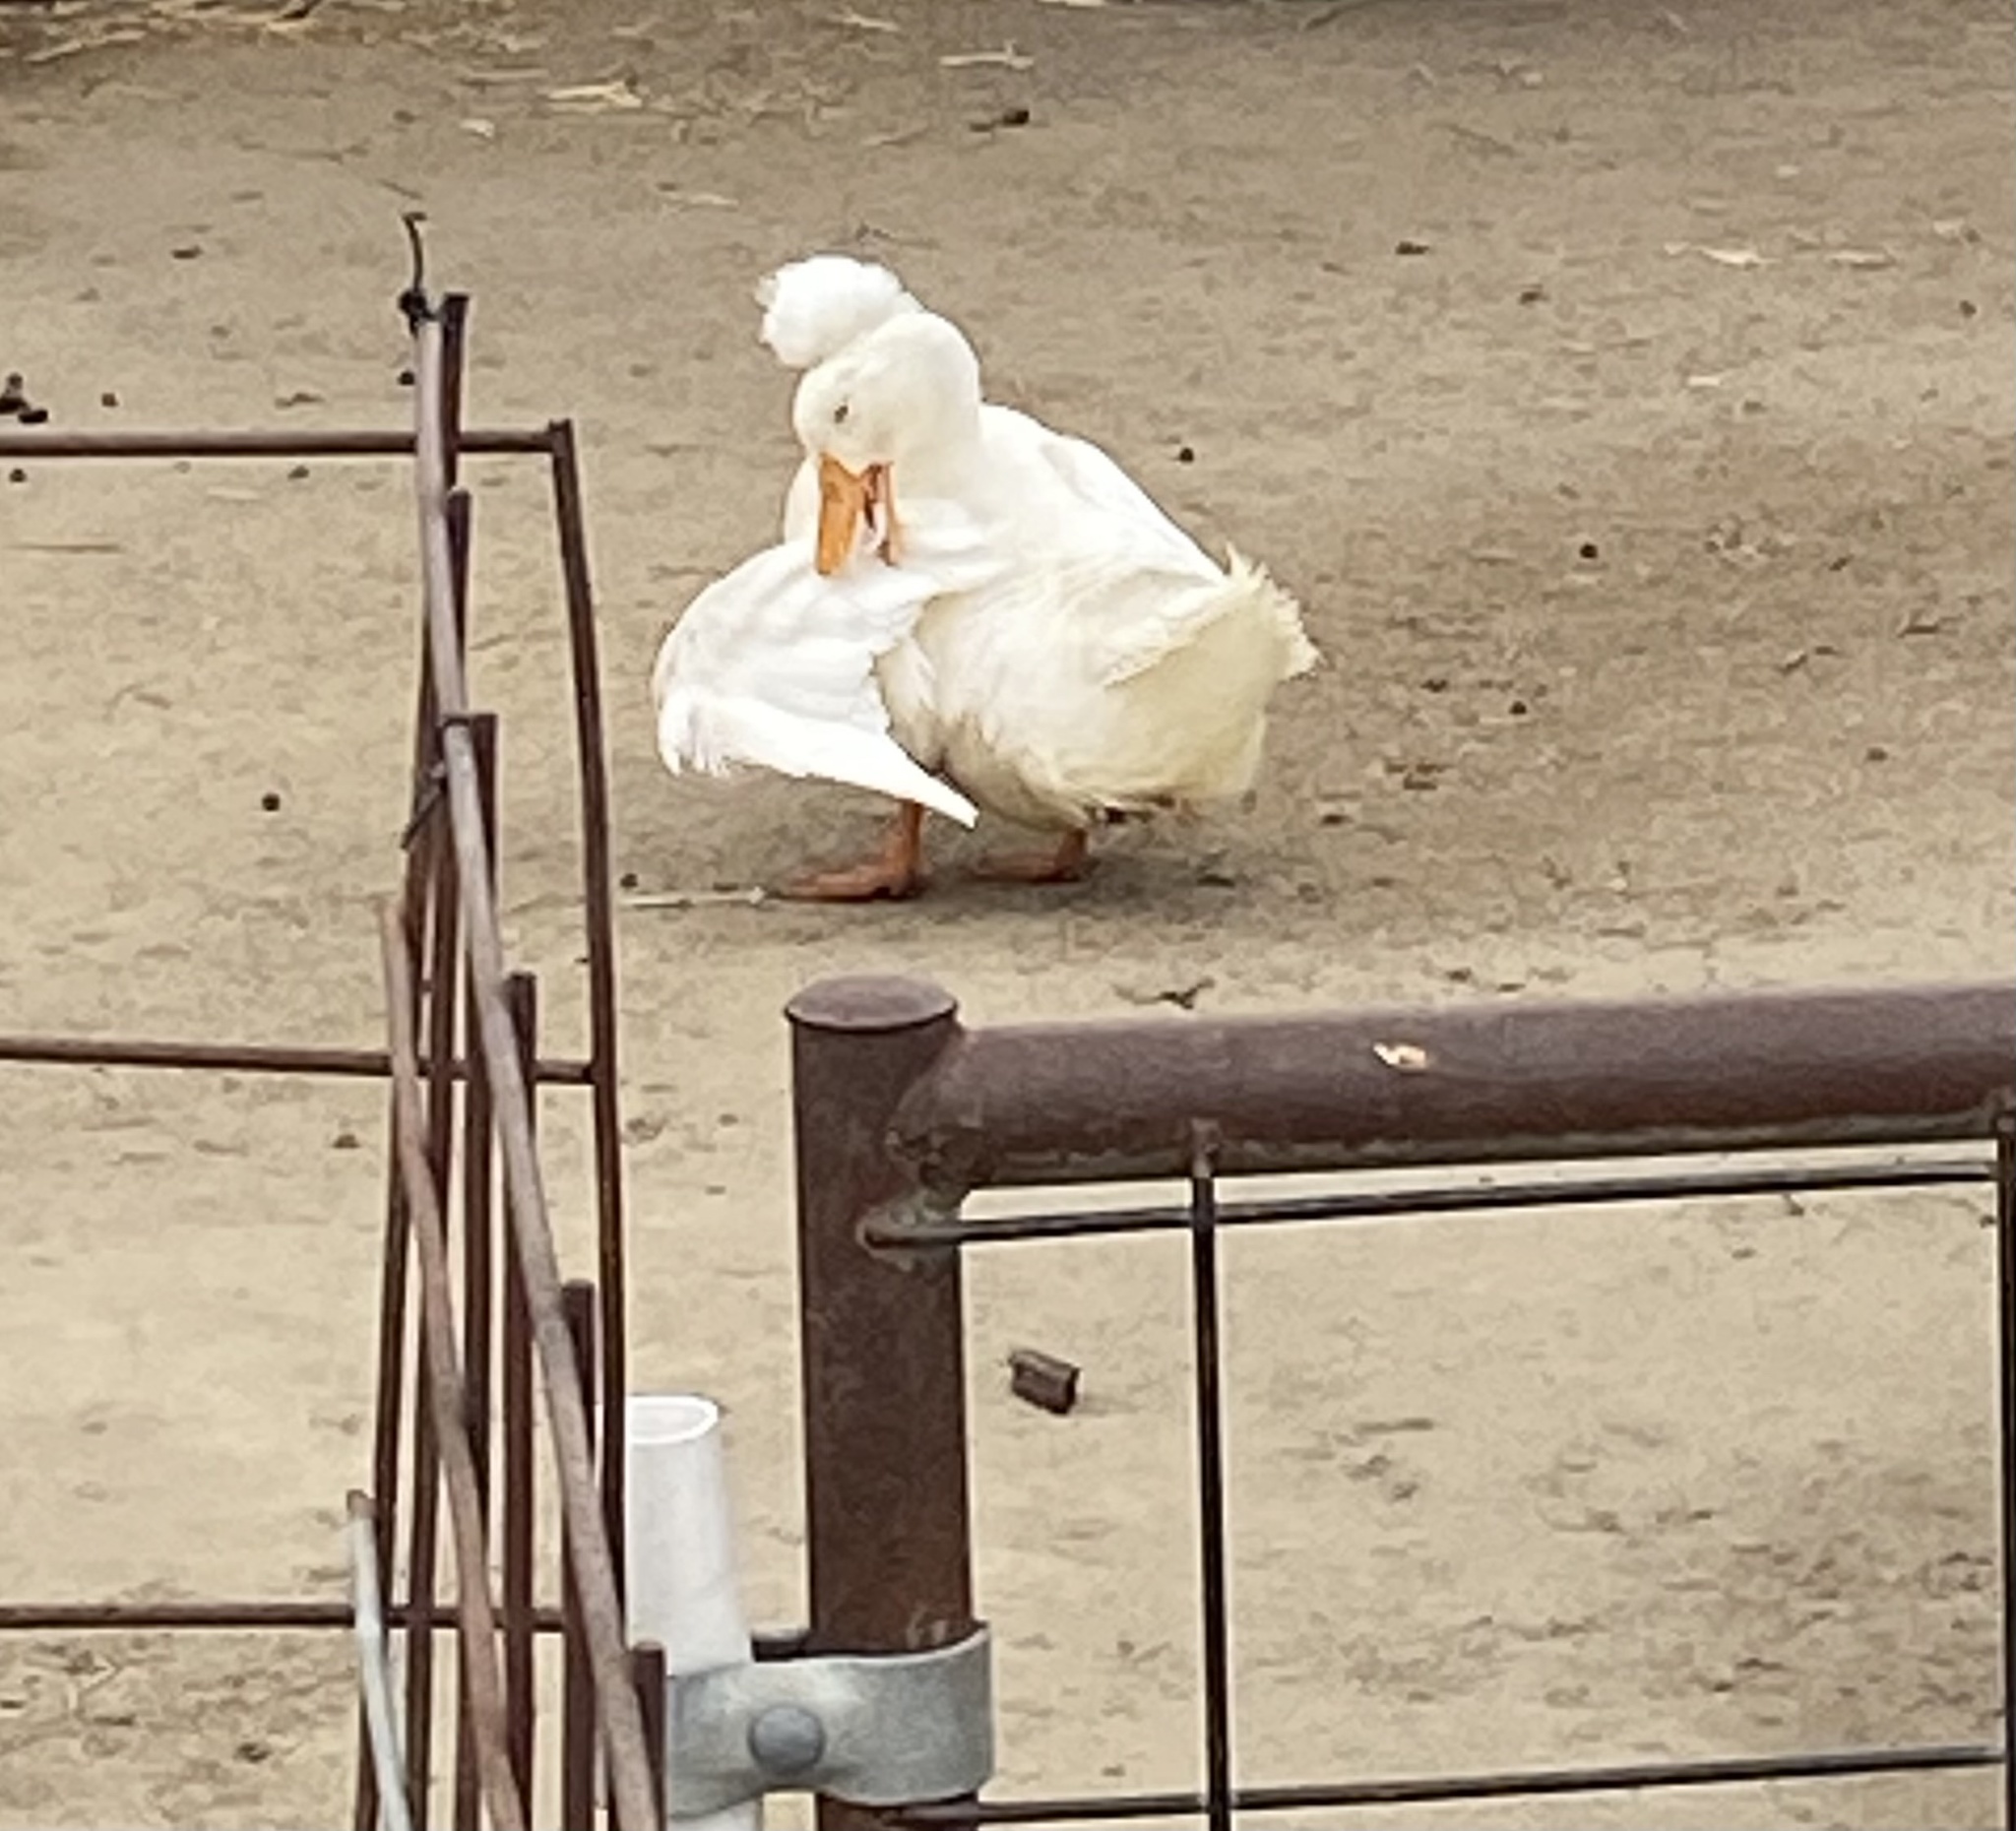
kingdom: Animalia
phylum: Chordata
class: Aves
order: Anseriformes
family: Anatidae
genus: Anas
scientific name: Anas platyrhynchos
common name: Mallard
